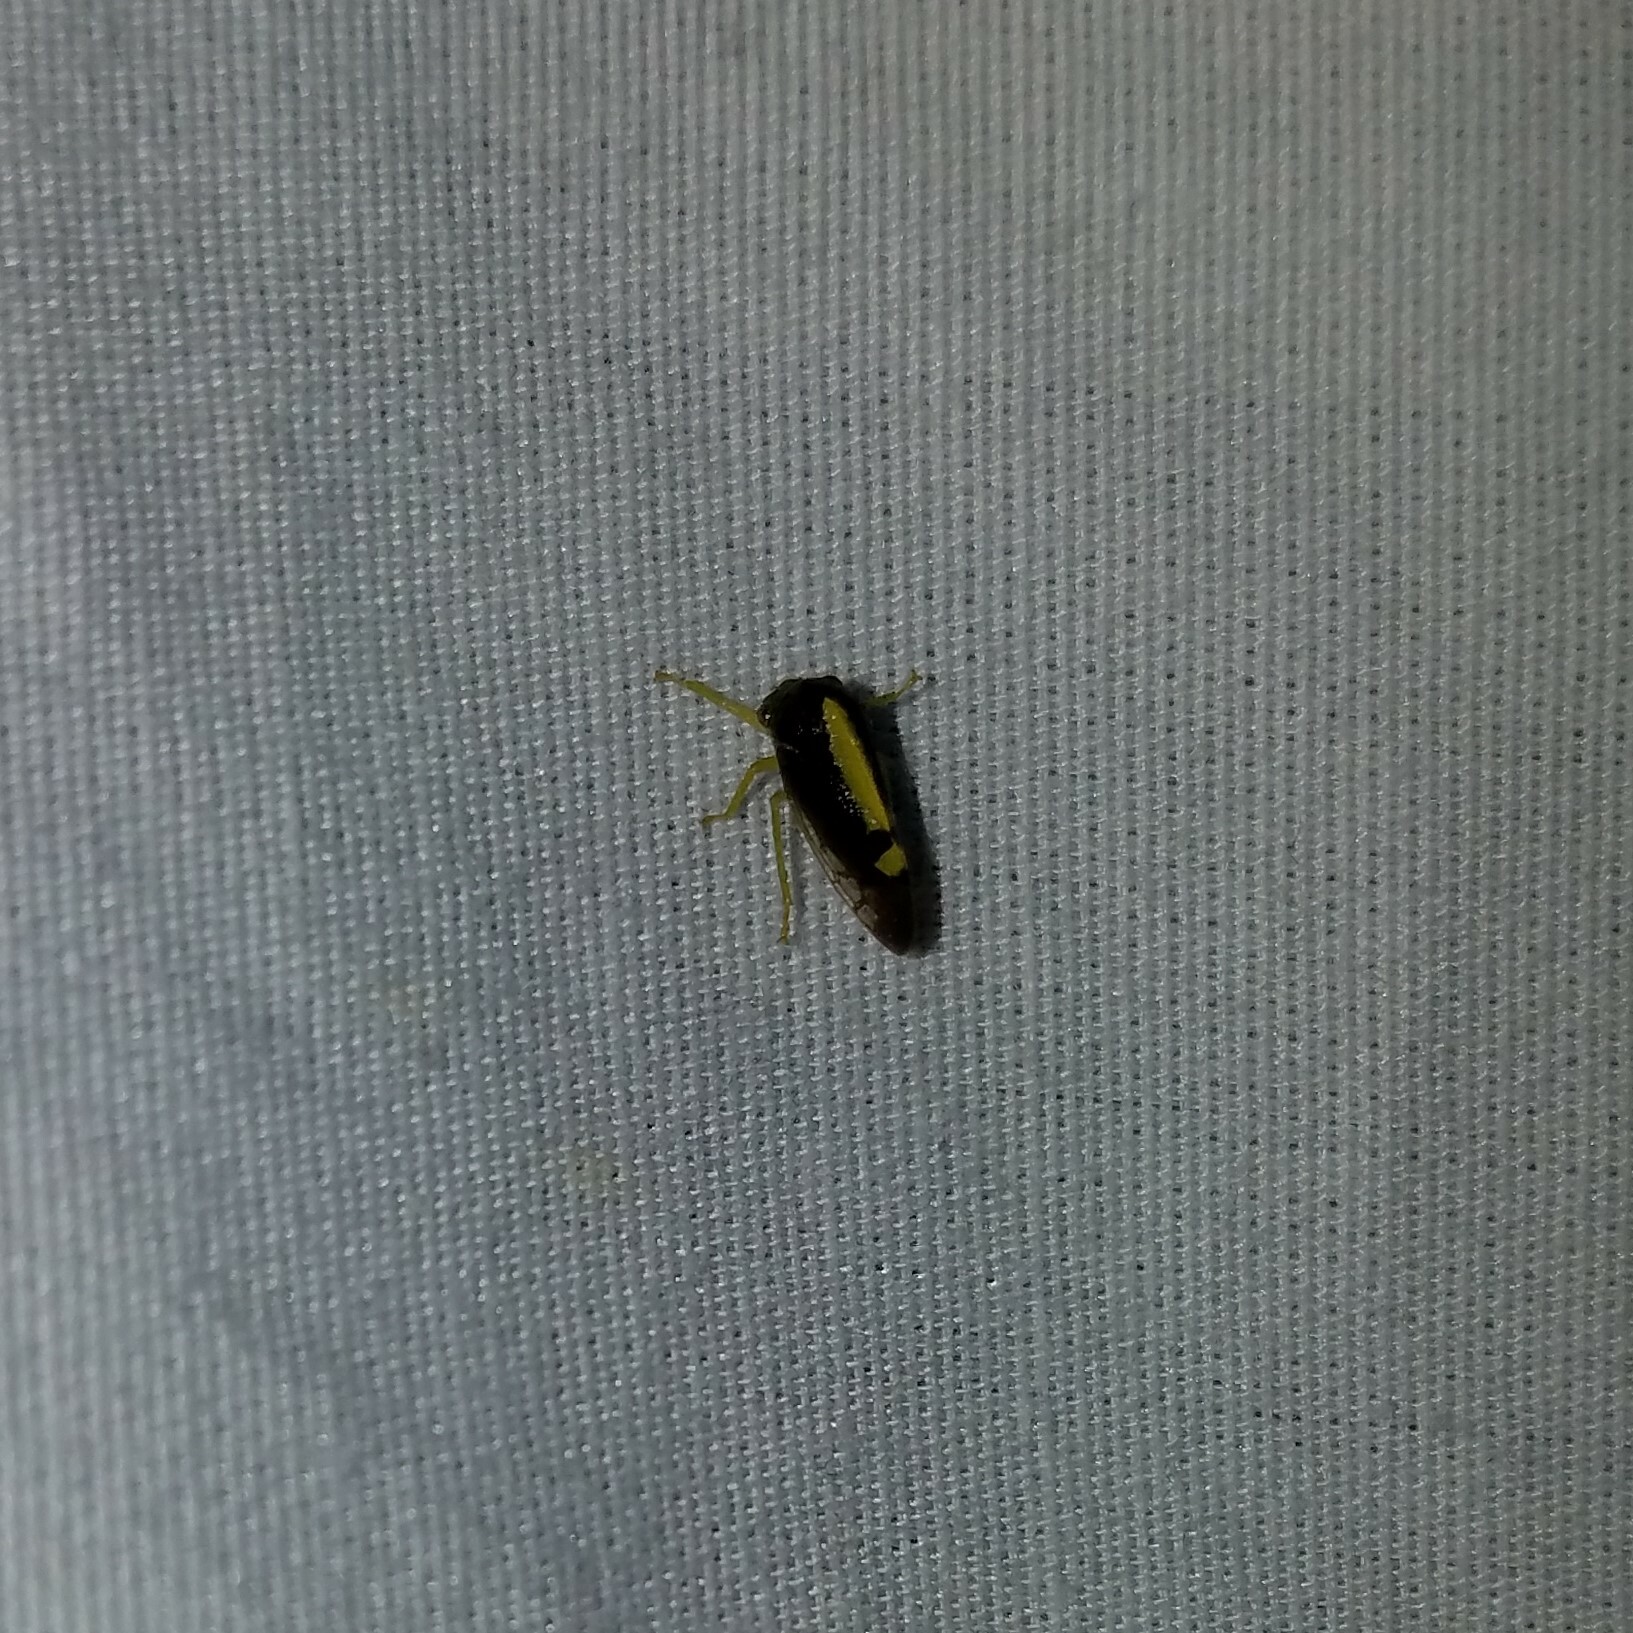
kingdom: Animalia
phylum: Arthropoda
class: Insecta
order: Hemiptera
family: Membracidae
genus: Atymna
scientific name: Atymna querci
